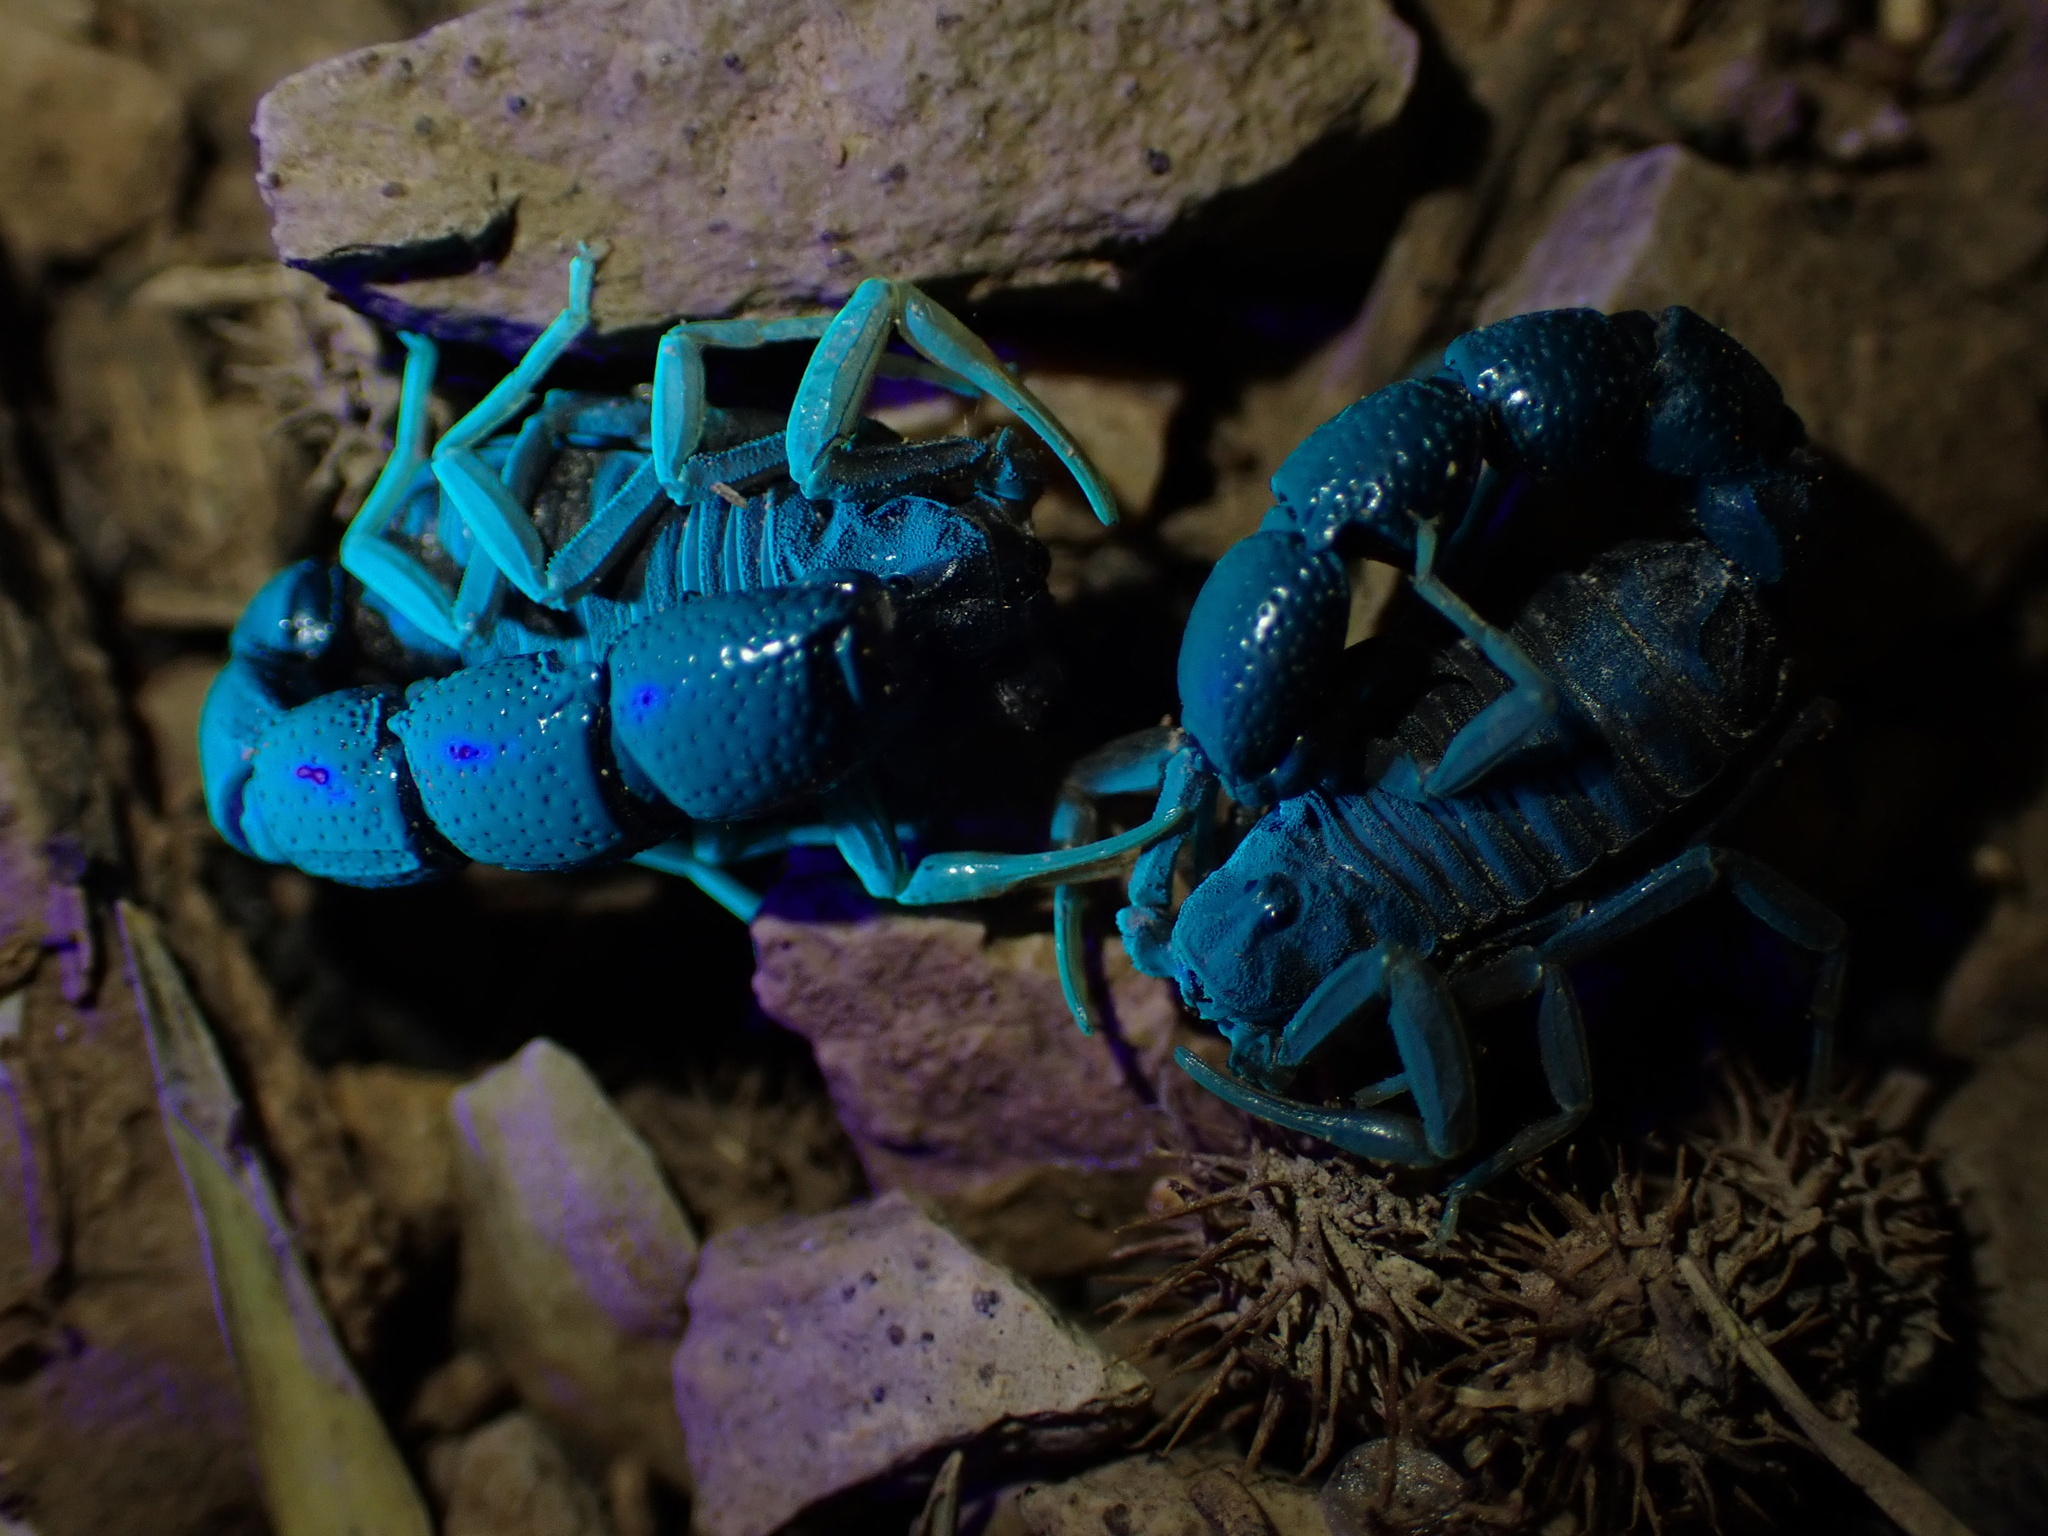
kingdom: Animalia
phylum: Arthropoda
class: Arachnida
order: Scorpiones
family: Buthidae
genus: Orthochirus
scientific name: Orthochirus farzanpayi
